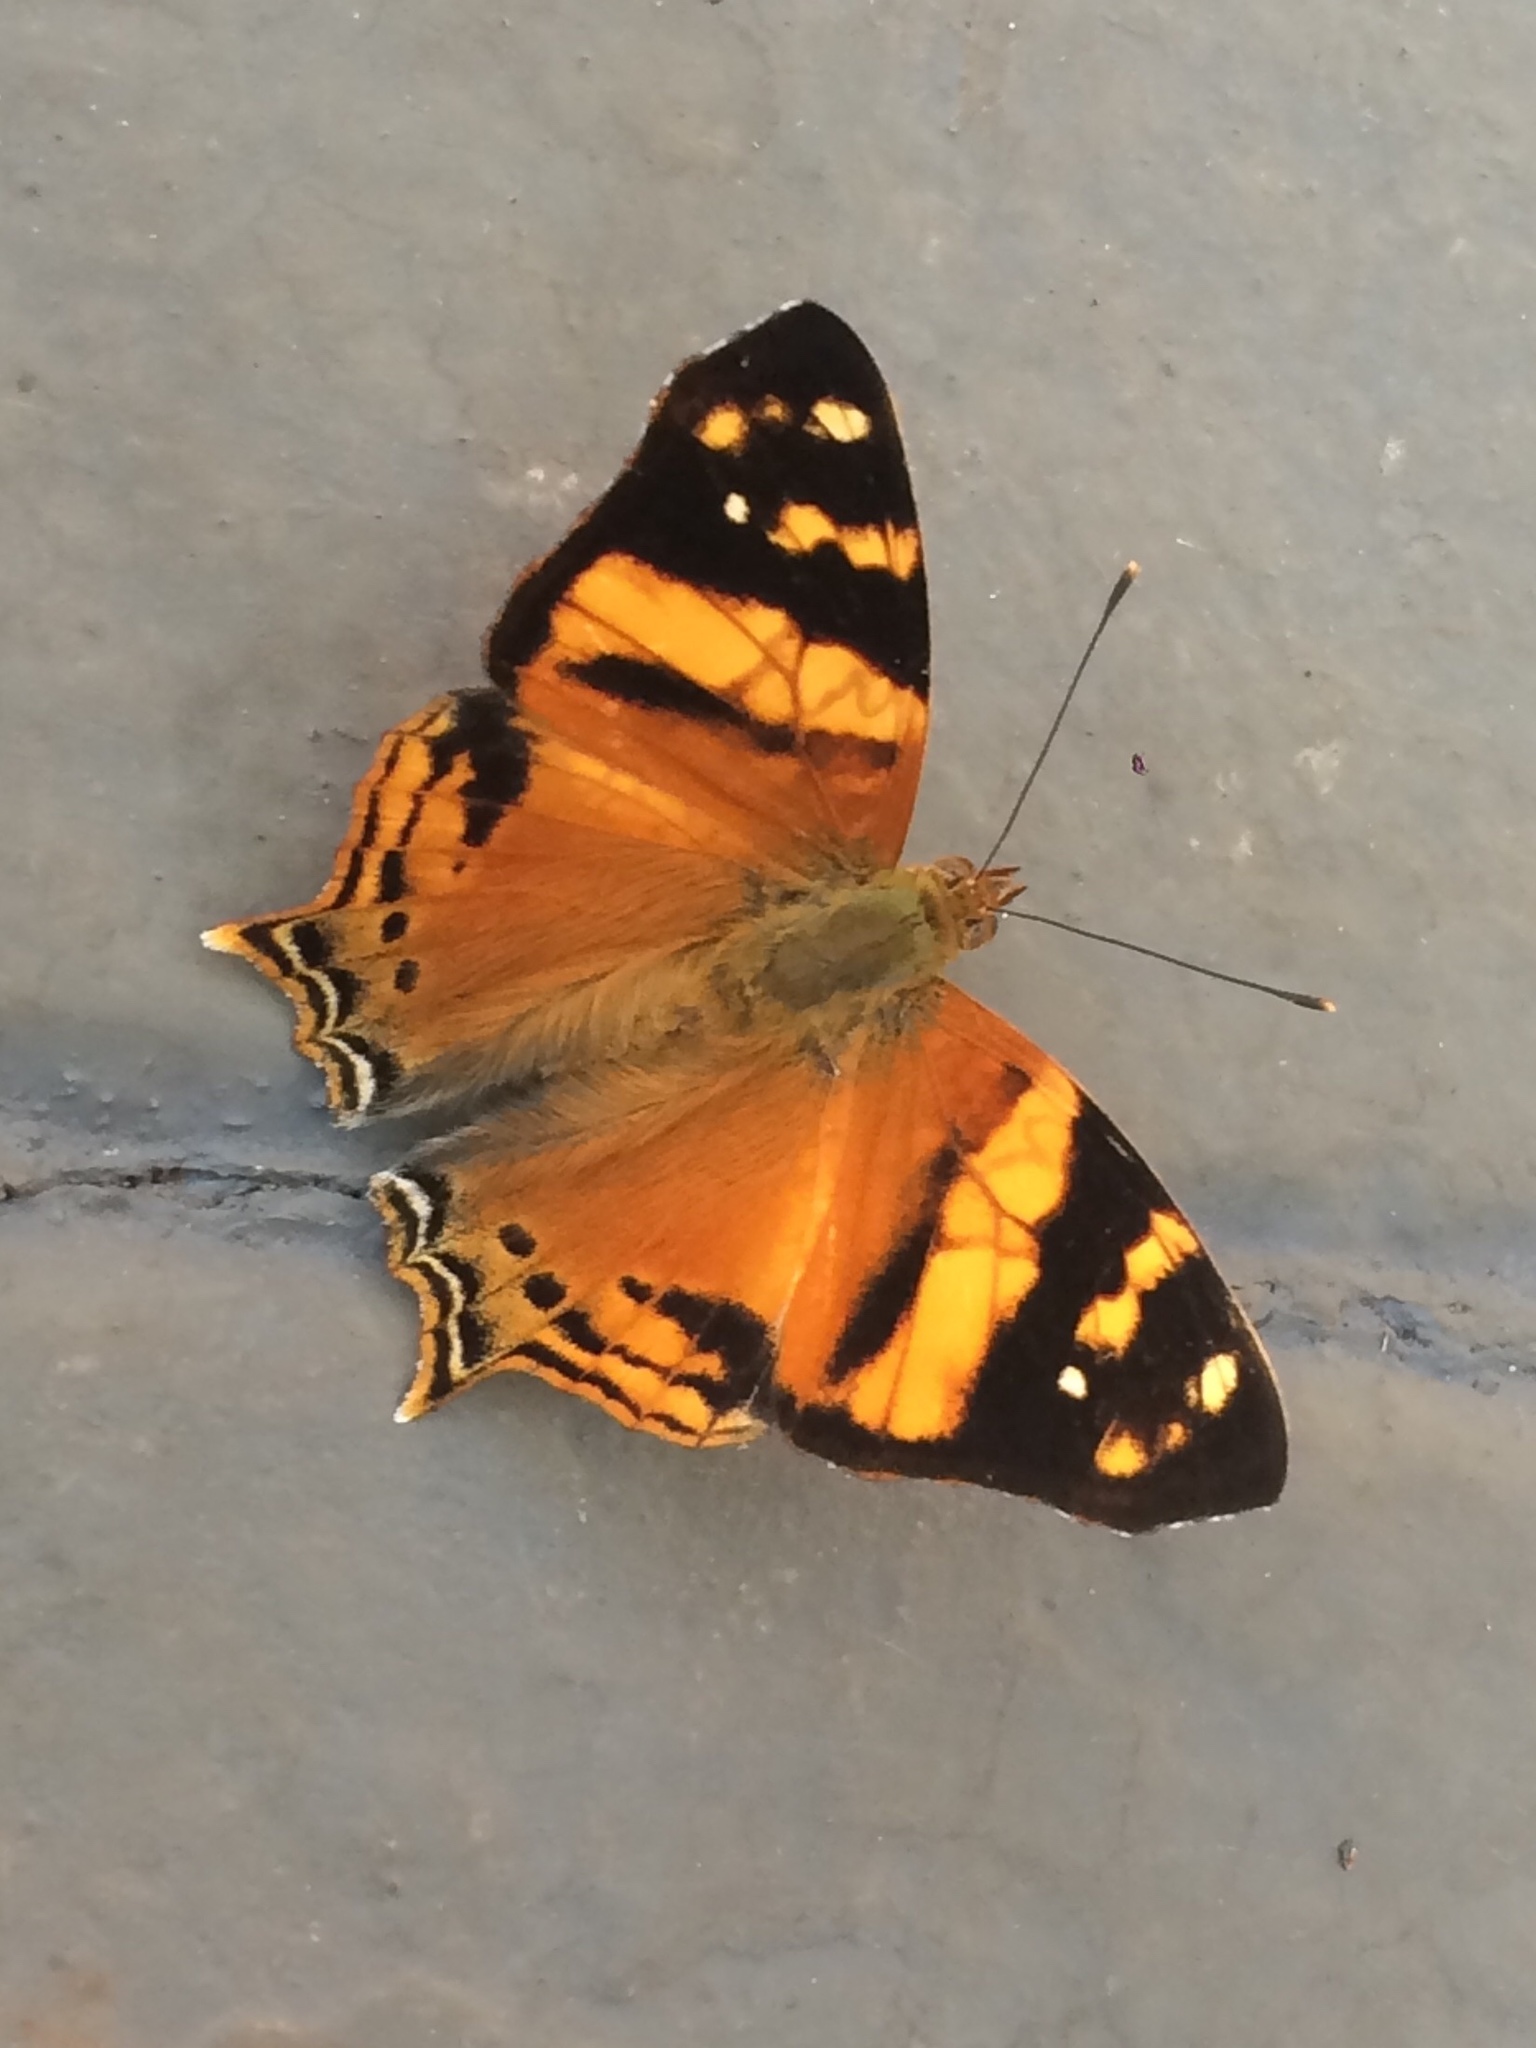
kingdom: Animalia
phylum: Arthropoda
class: Insecta
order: Lepidoptera
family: Nymphalidae
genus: Hypanartia
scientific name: Hypanartia lethe
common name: Orange mapwing
